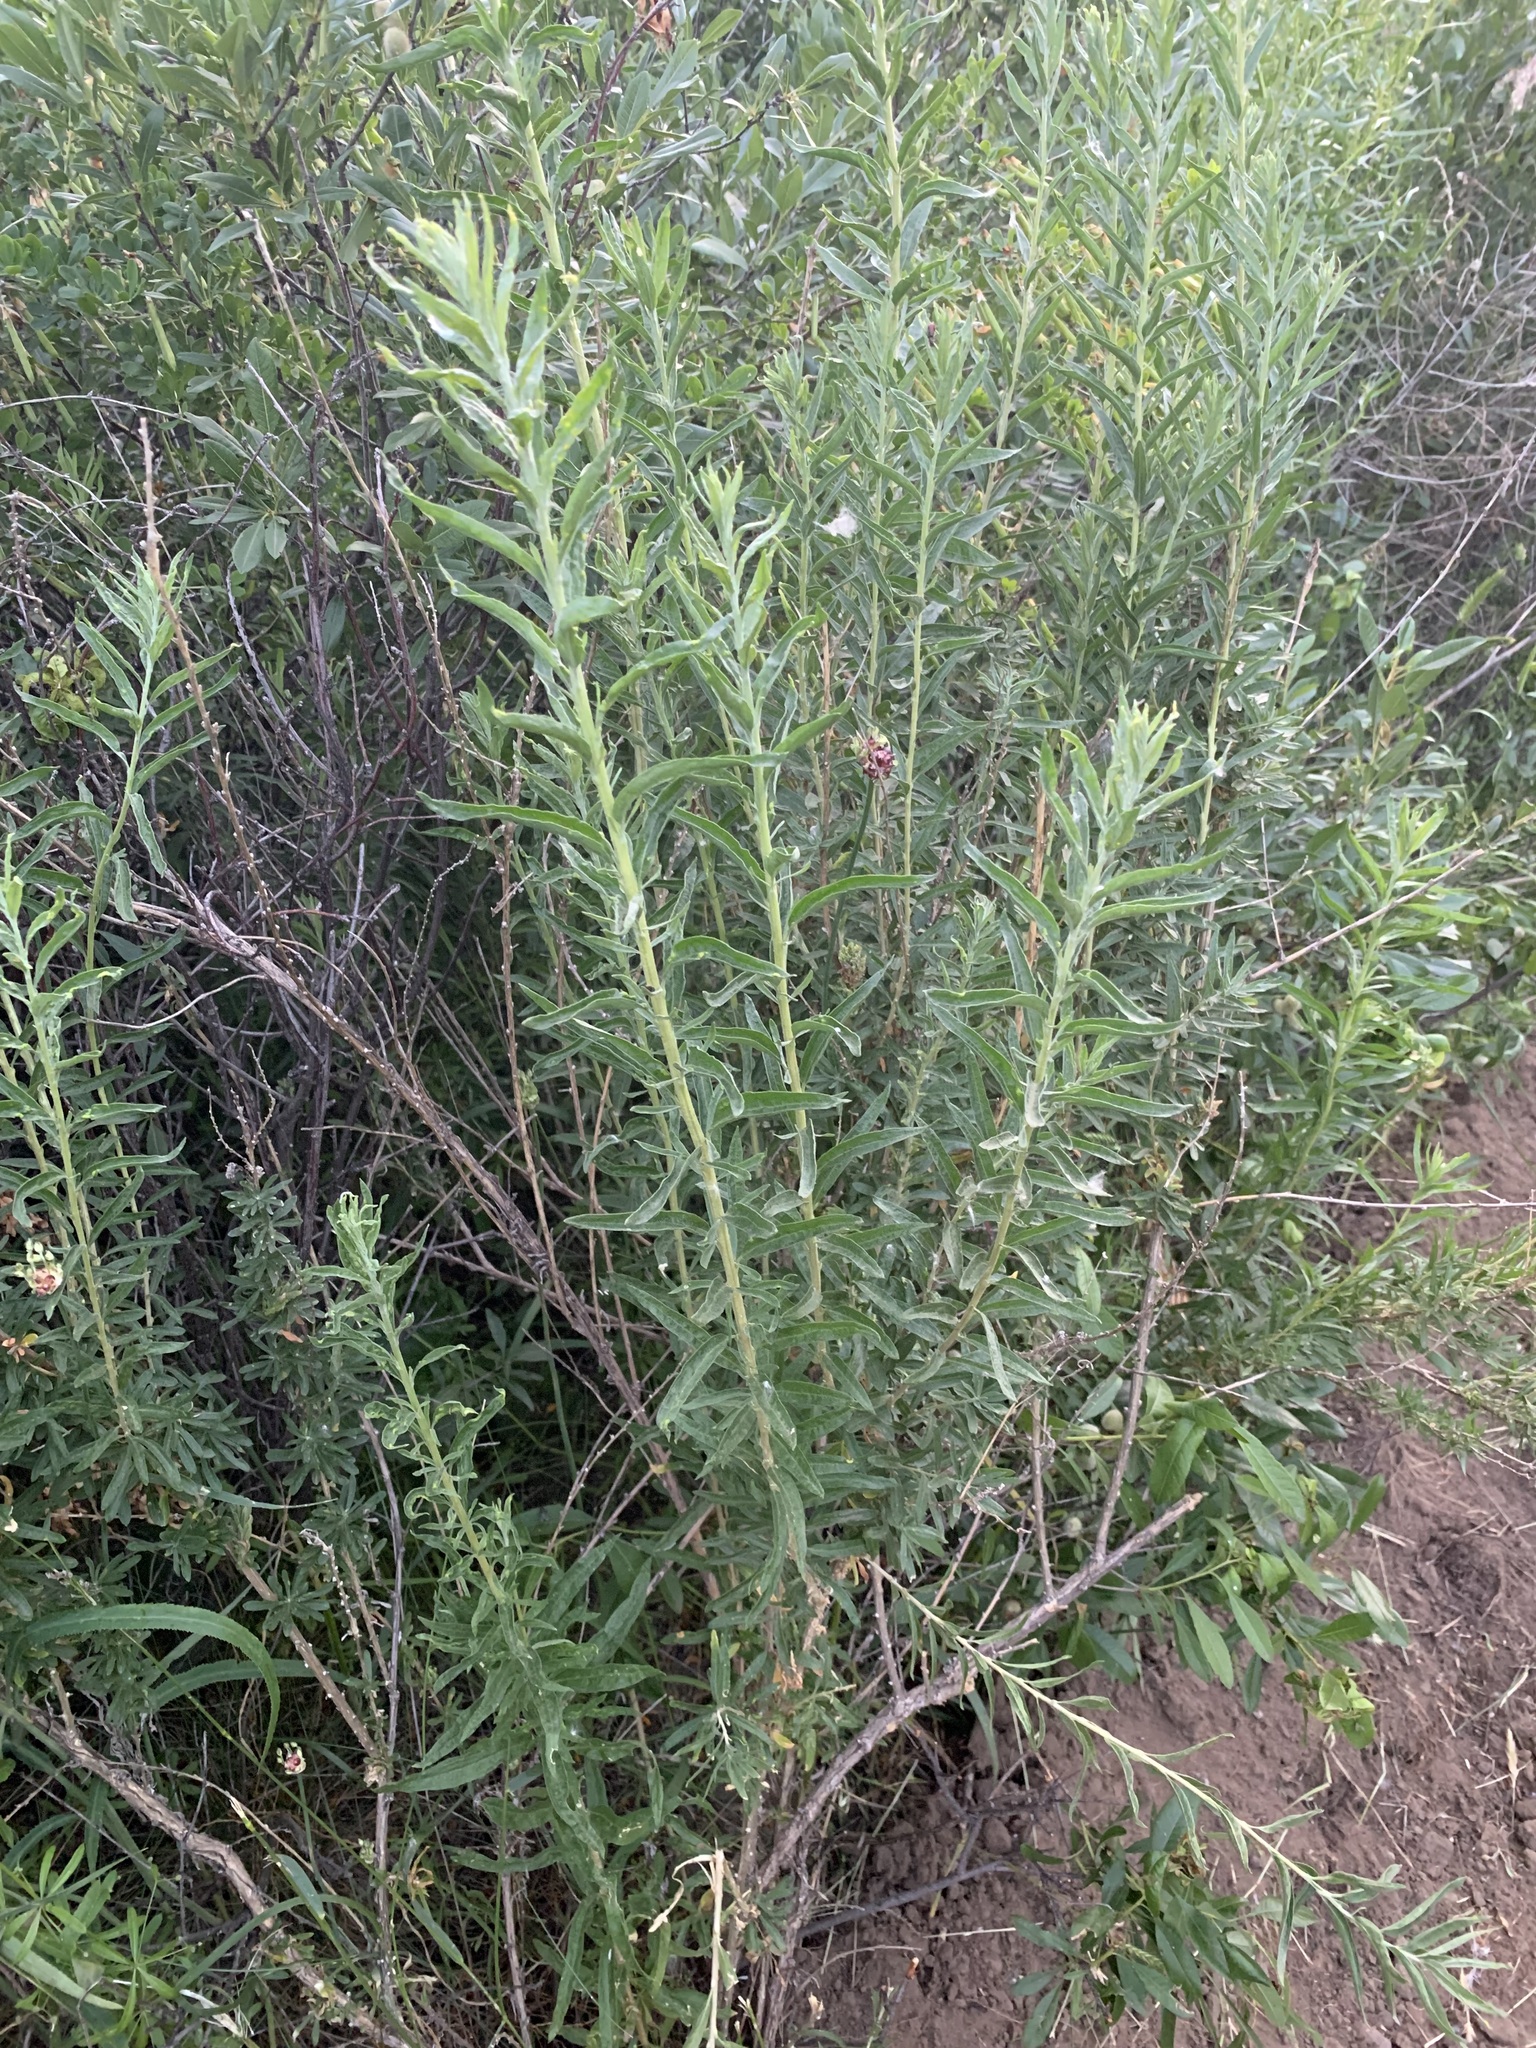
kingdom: Plantae
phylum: Tracheophyta
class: Magnoliopsida
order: Caryophyllales
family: Amaranthaceae
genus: Krascheninnikovia
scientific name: Krascheninnikovia ceratoides
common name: Pamirian winterfat
